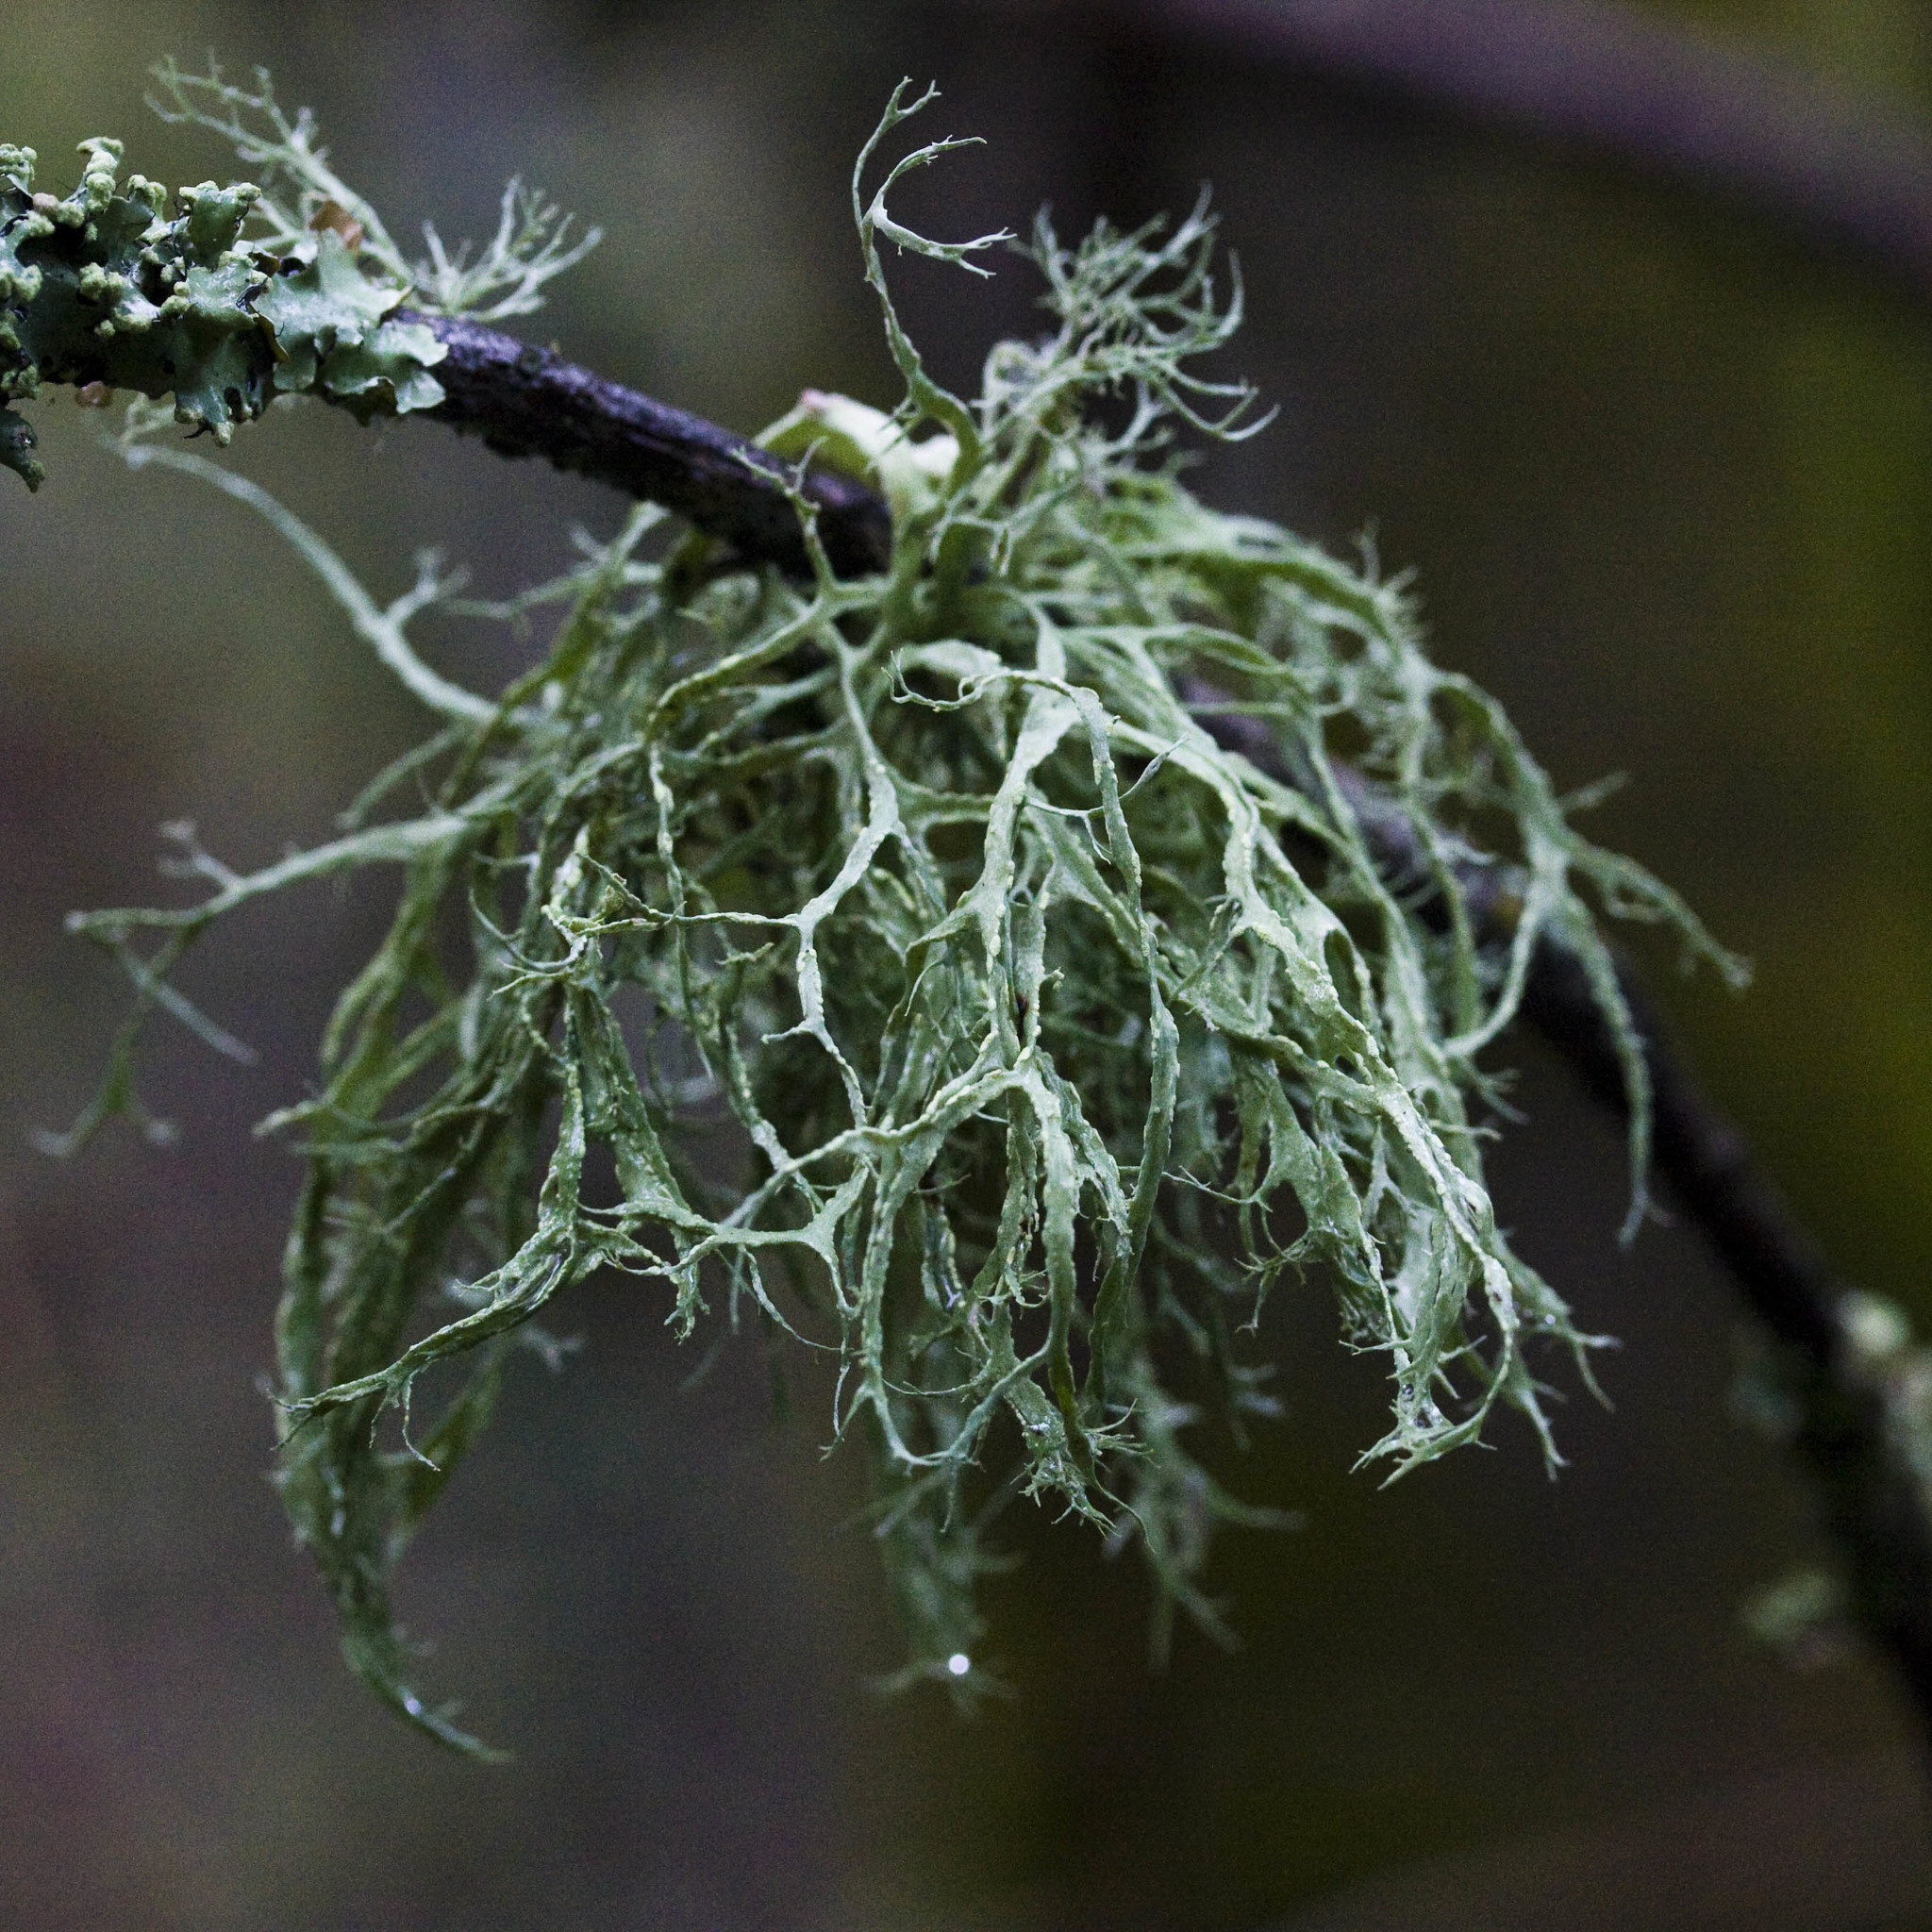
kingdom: Fungi
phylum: Ascomycota
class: Lecanoromycetes
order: Lecanorales
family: Ramalinaceae
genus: Ramalina
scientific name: Ramalina farinacea
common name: Farinose cartilage lichen
